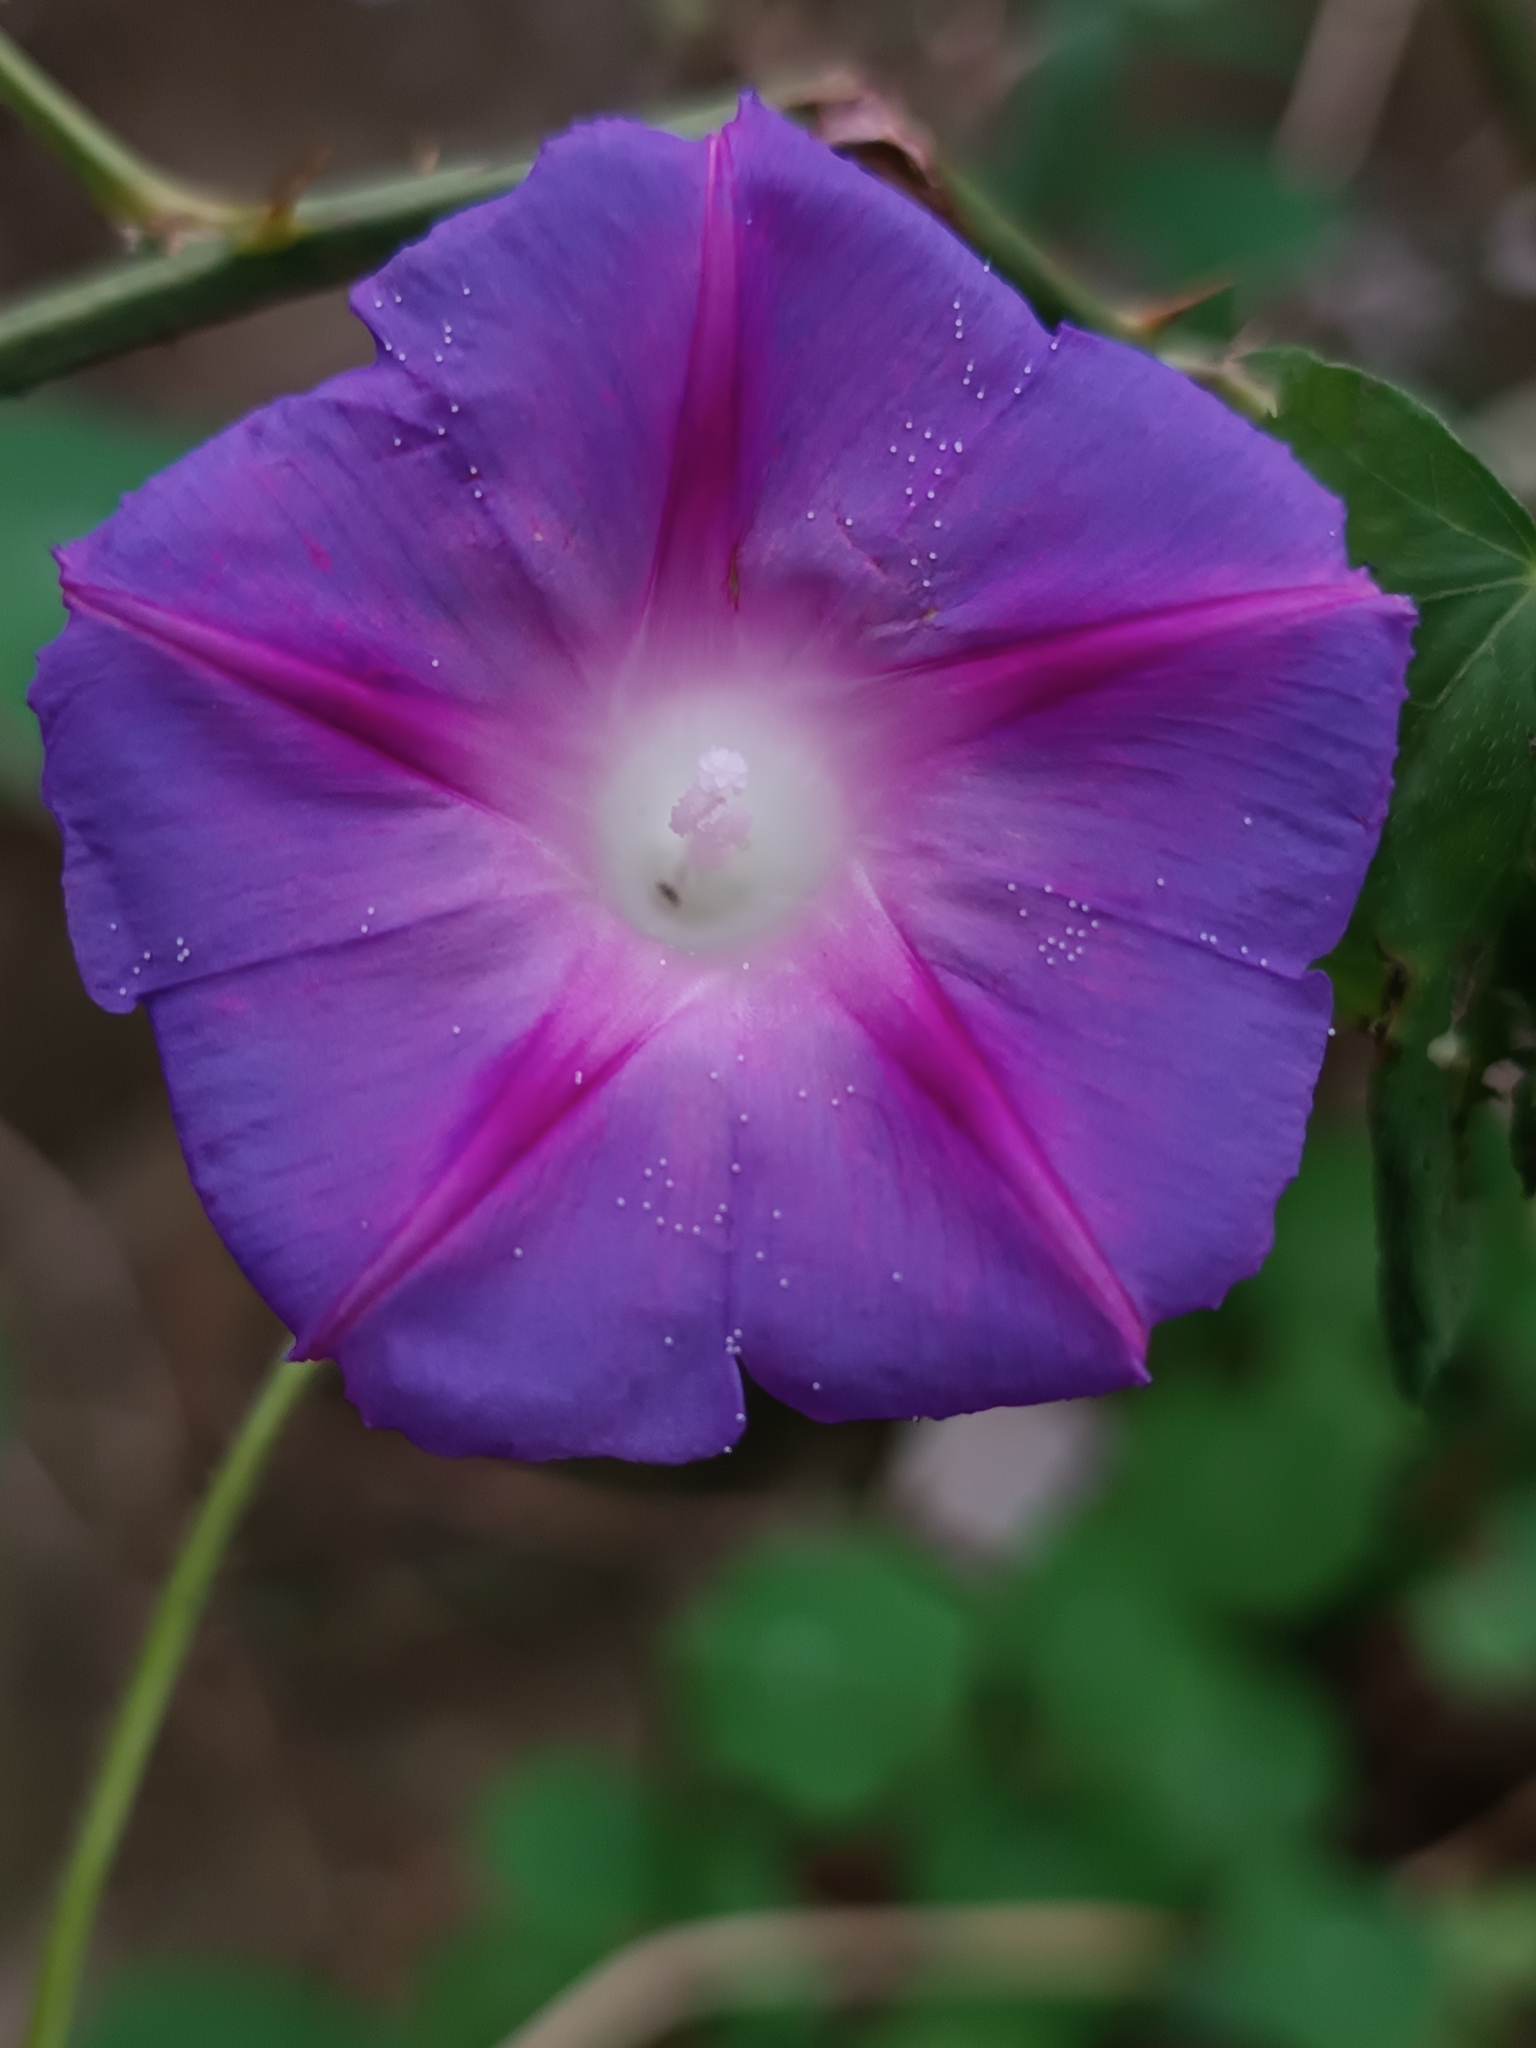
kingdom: Plantae
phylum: Tracheophyta
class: Magnoliopsida
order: Solanales
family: Convolvulaceae
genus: Ipomoea
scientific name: Ipomoea purpurea
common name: Common morning-glory
